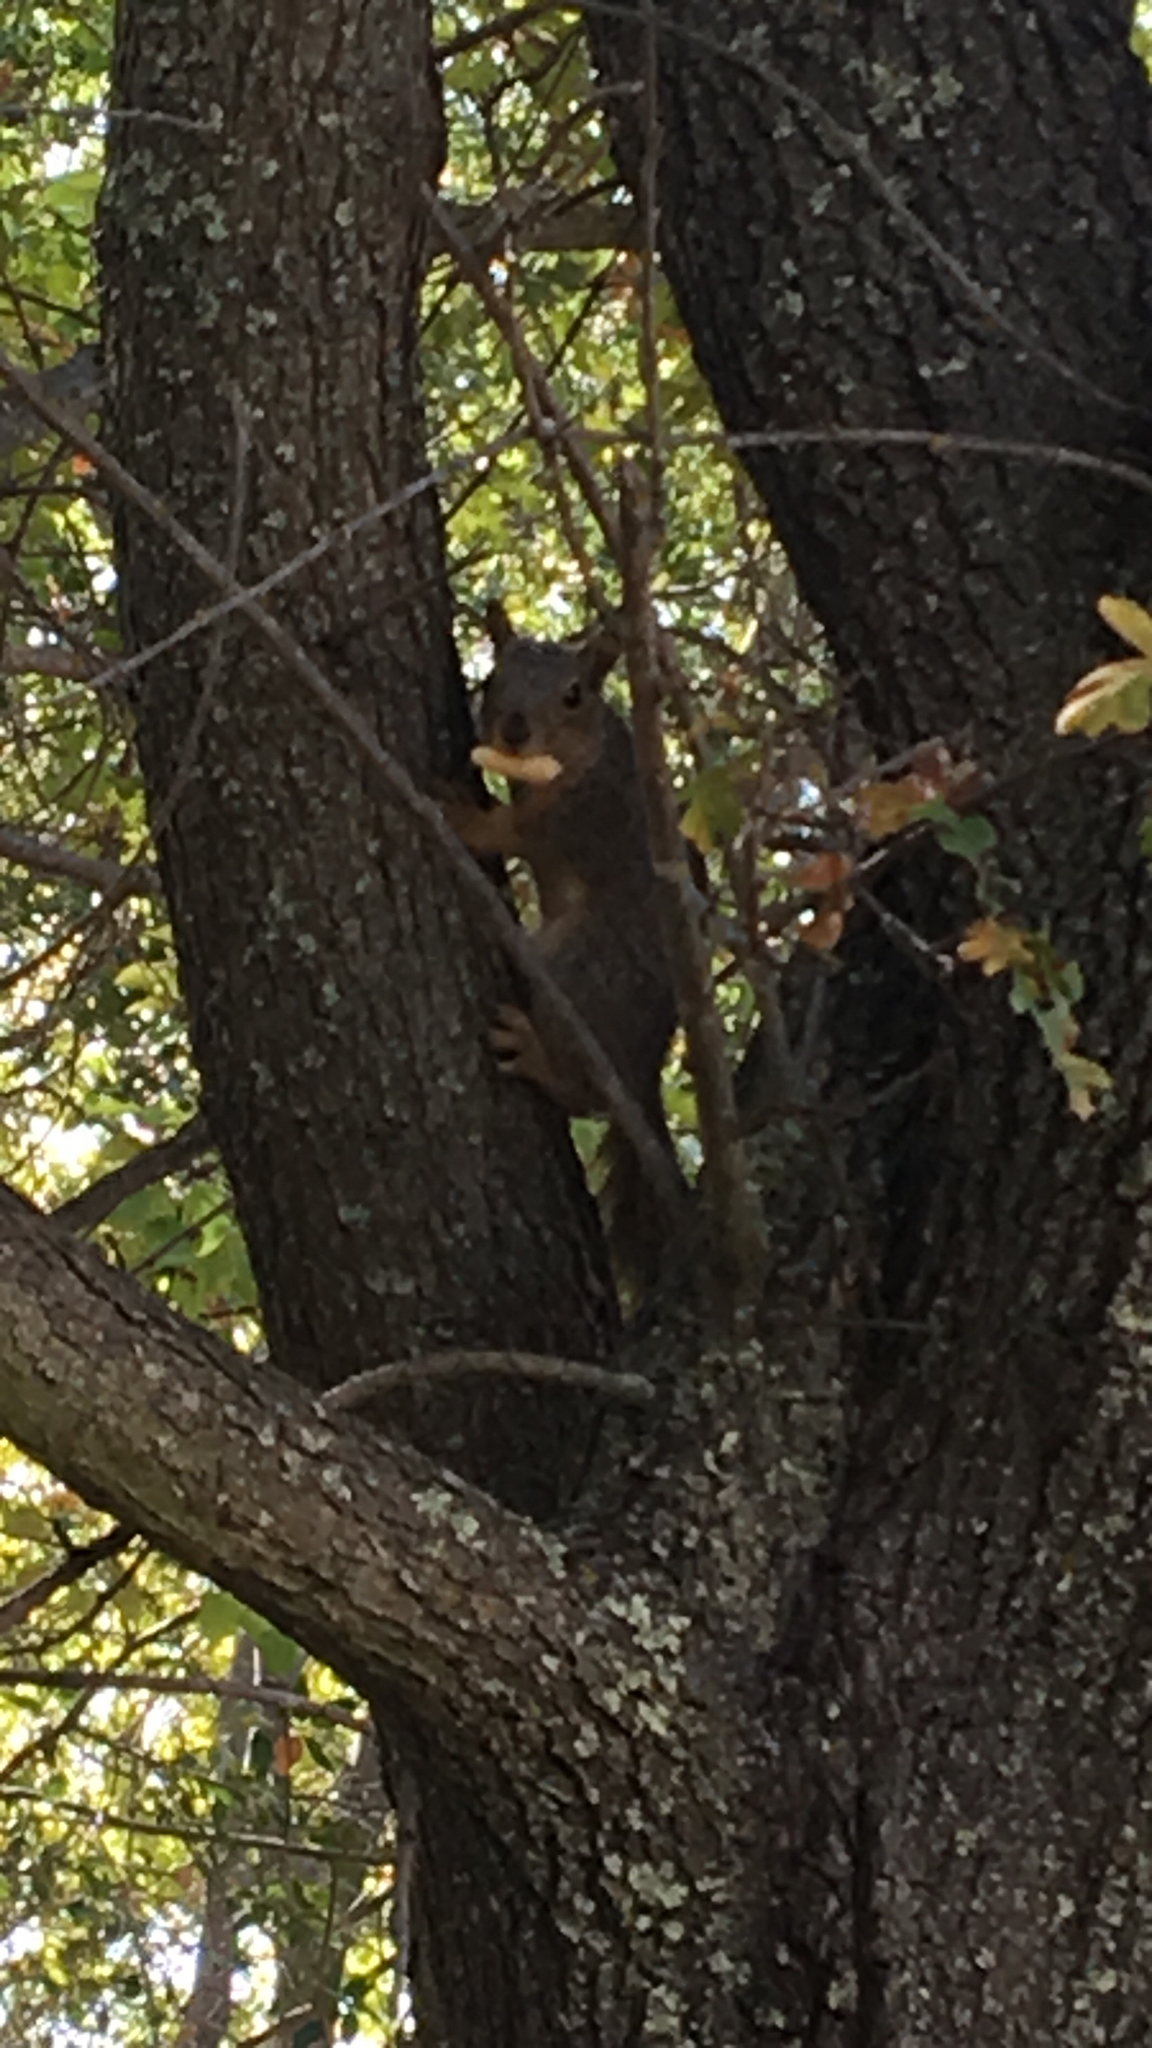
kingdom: Animalia
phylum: Chordata
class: Mammalia
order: Rodentia
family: Sciuridae
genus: Sciurus
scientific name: Sciurus niger
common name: Fox squirrel
